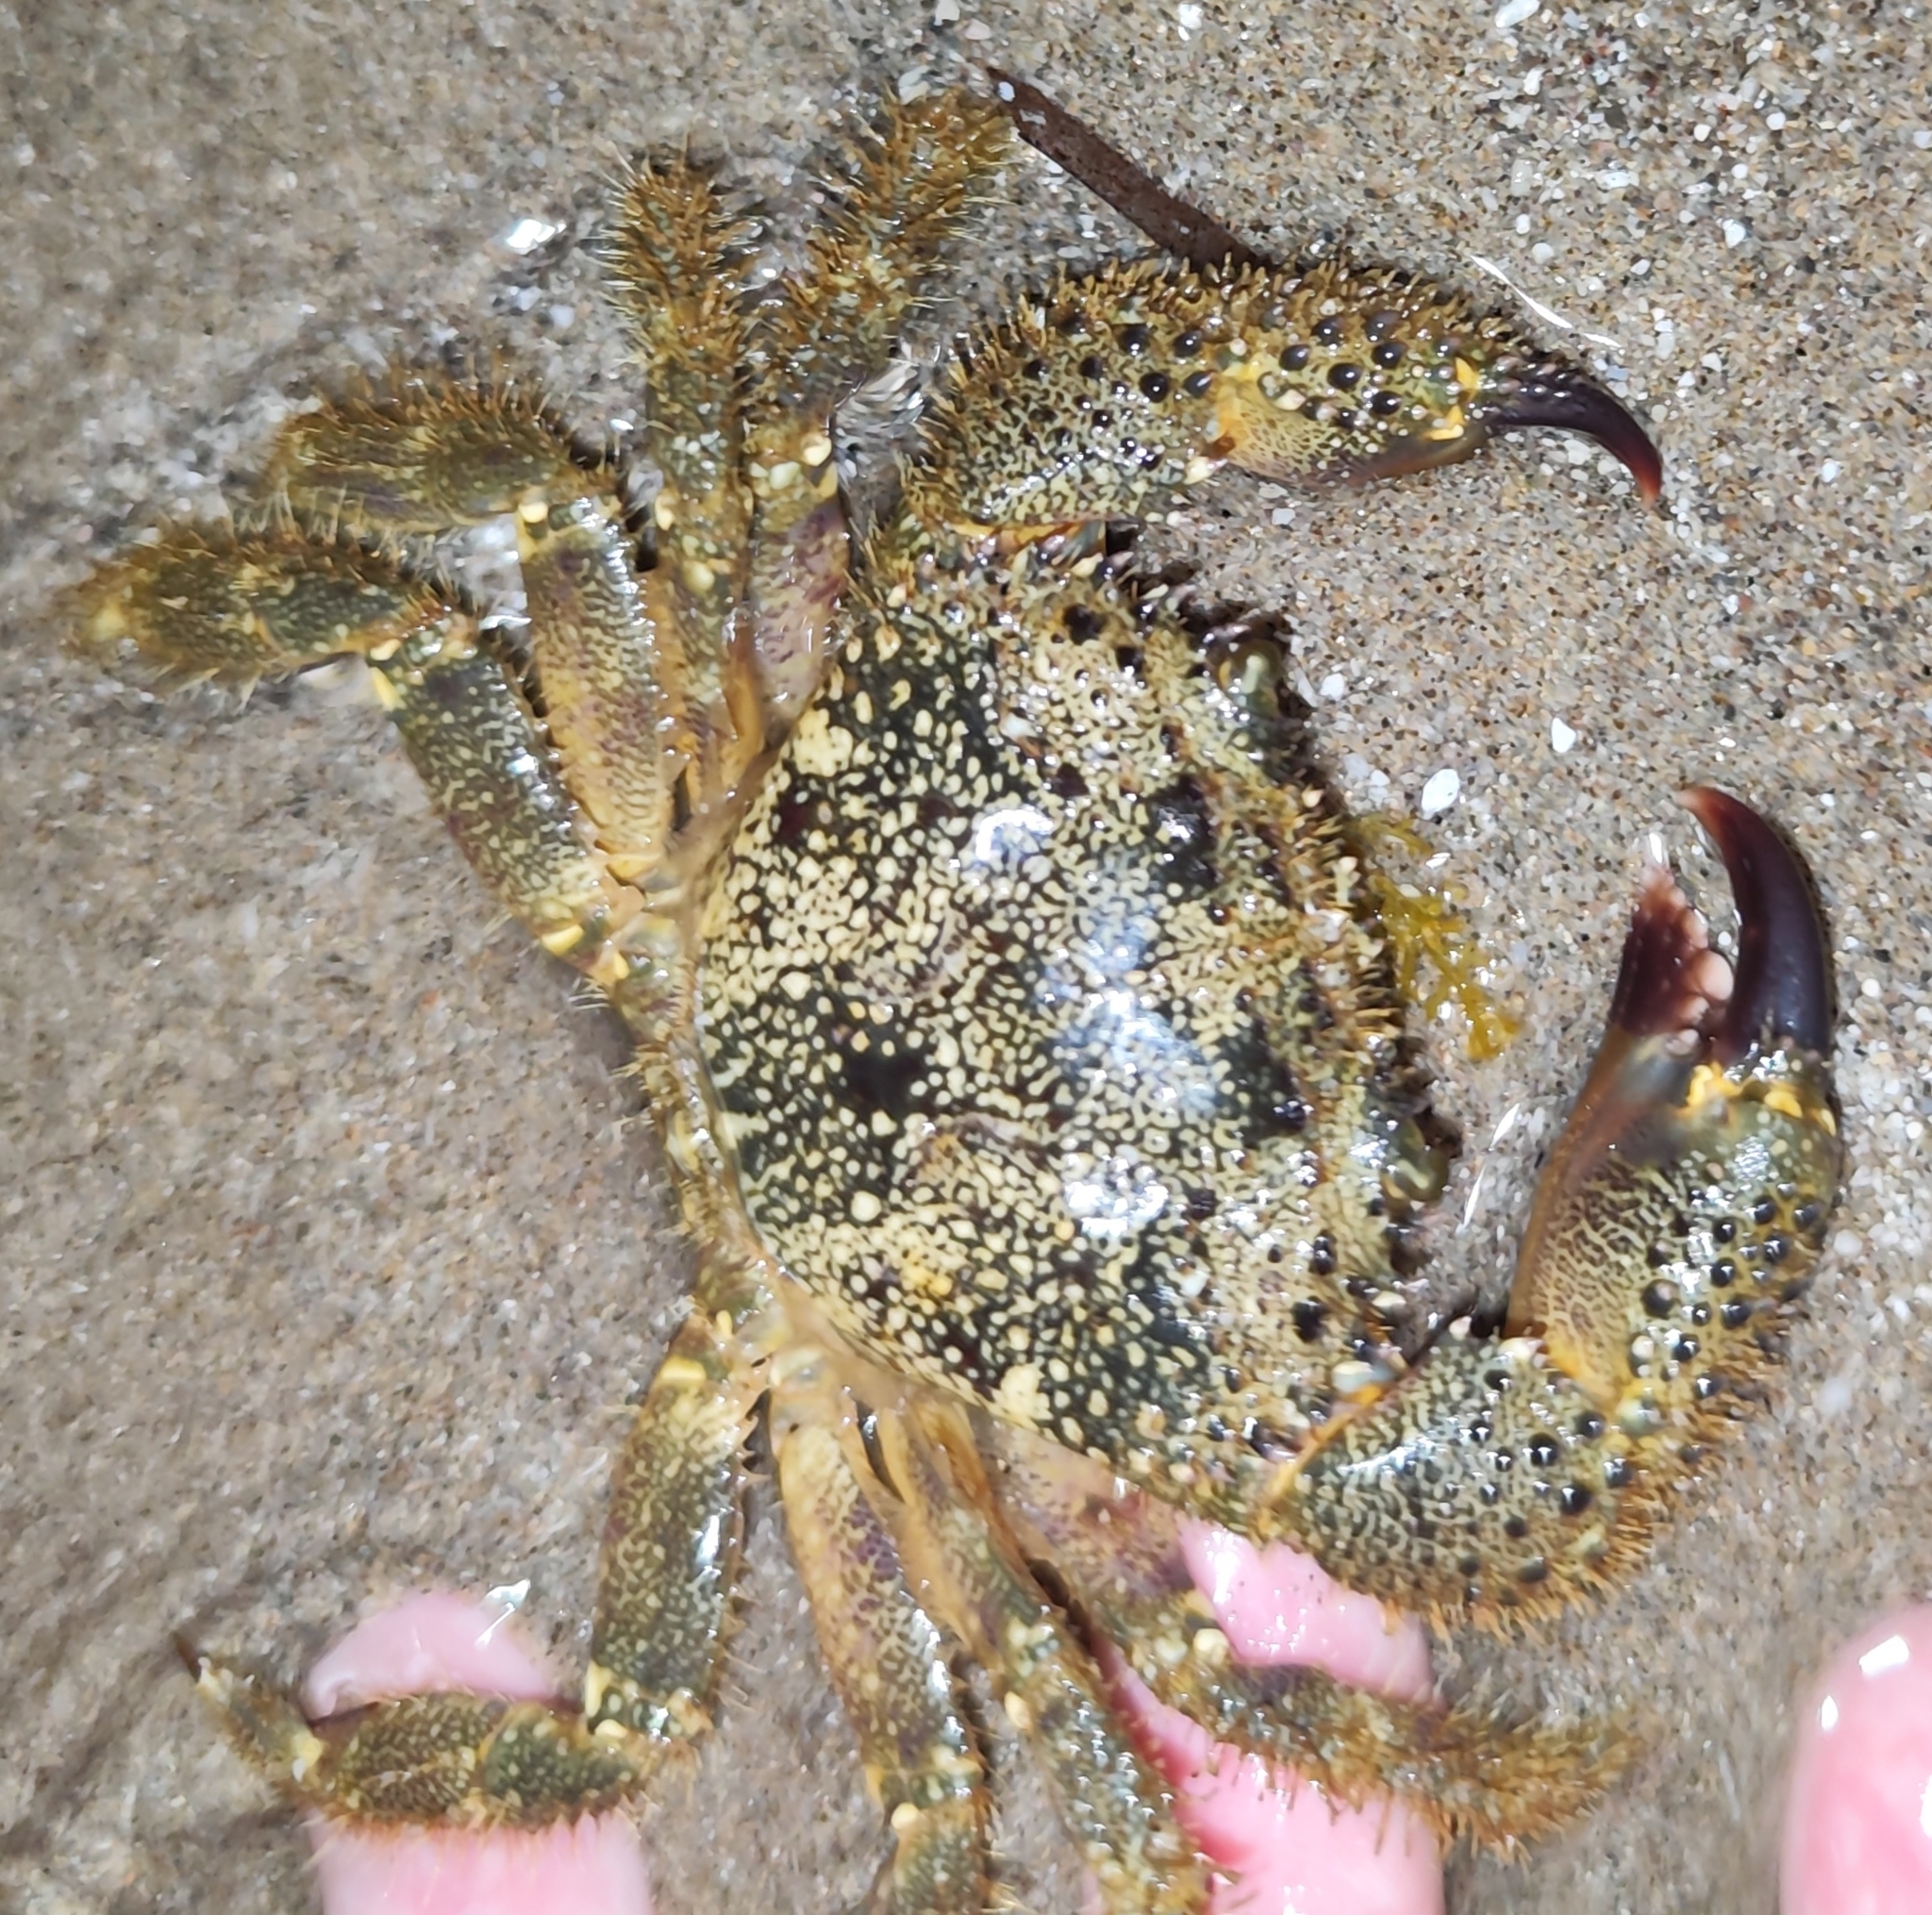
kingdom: Animalia
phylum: Arthropoda
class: Malacostraca
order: Decapoda
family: Eriphiidae
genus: Eriphia
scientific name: Eriphia verrucosa
